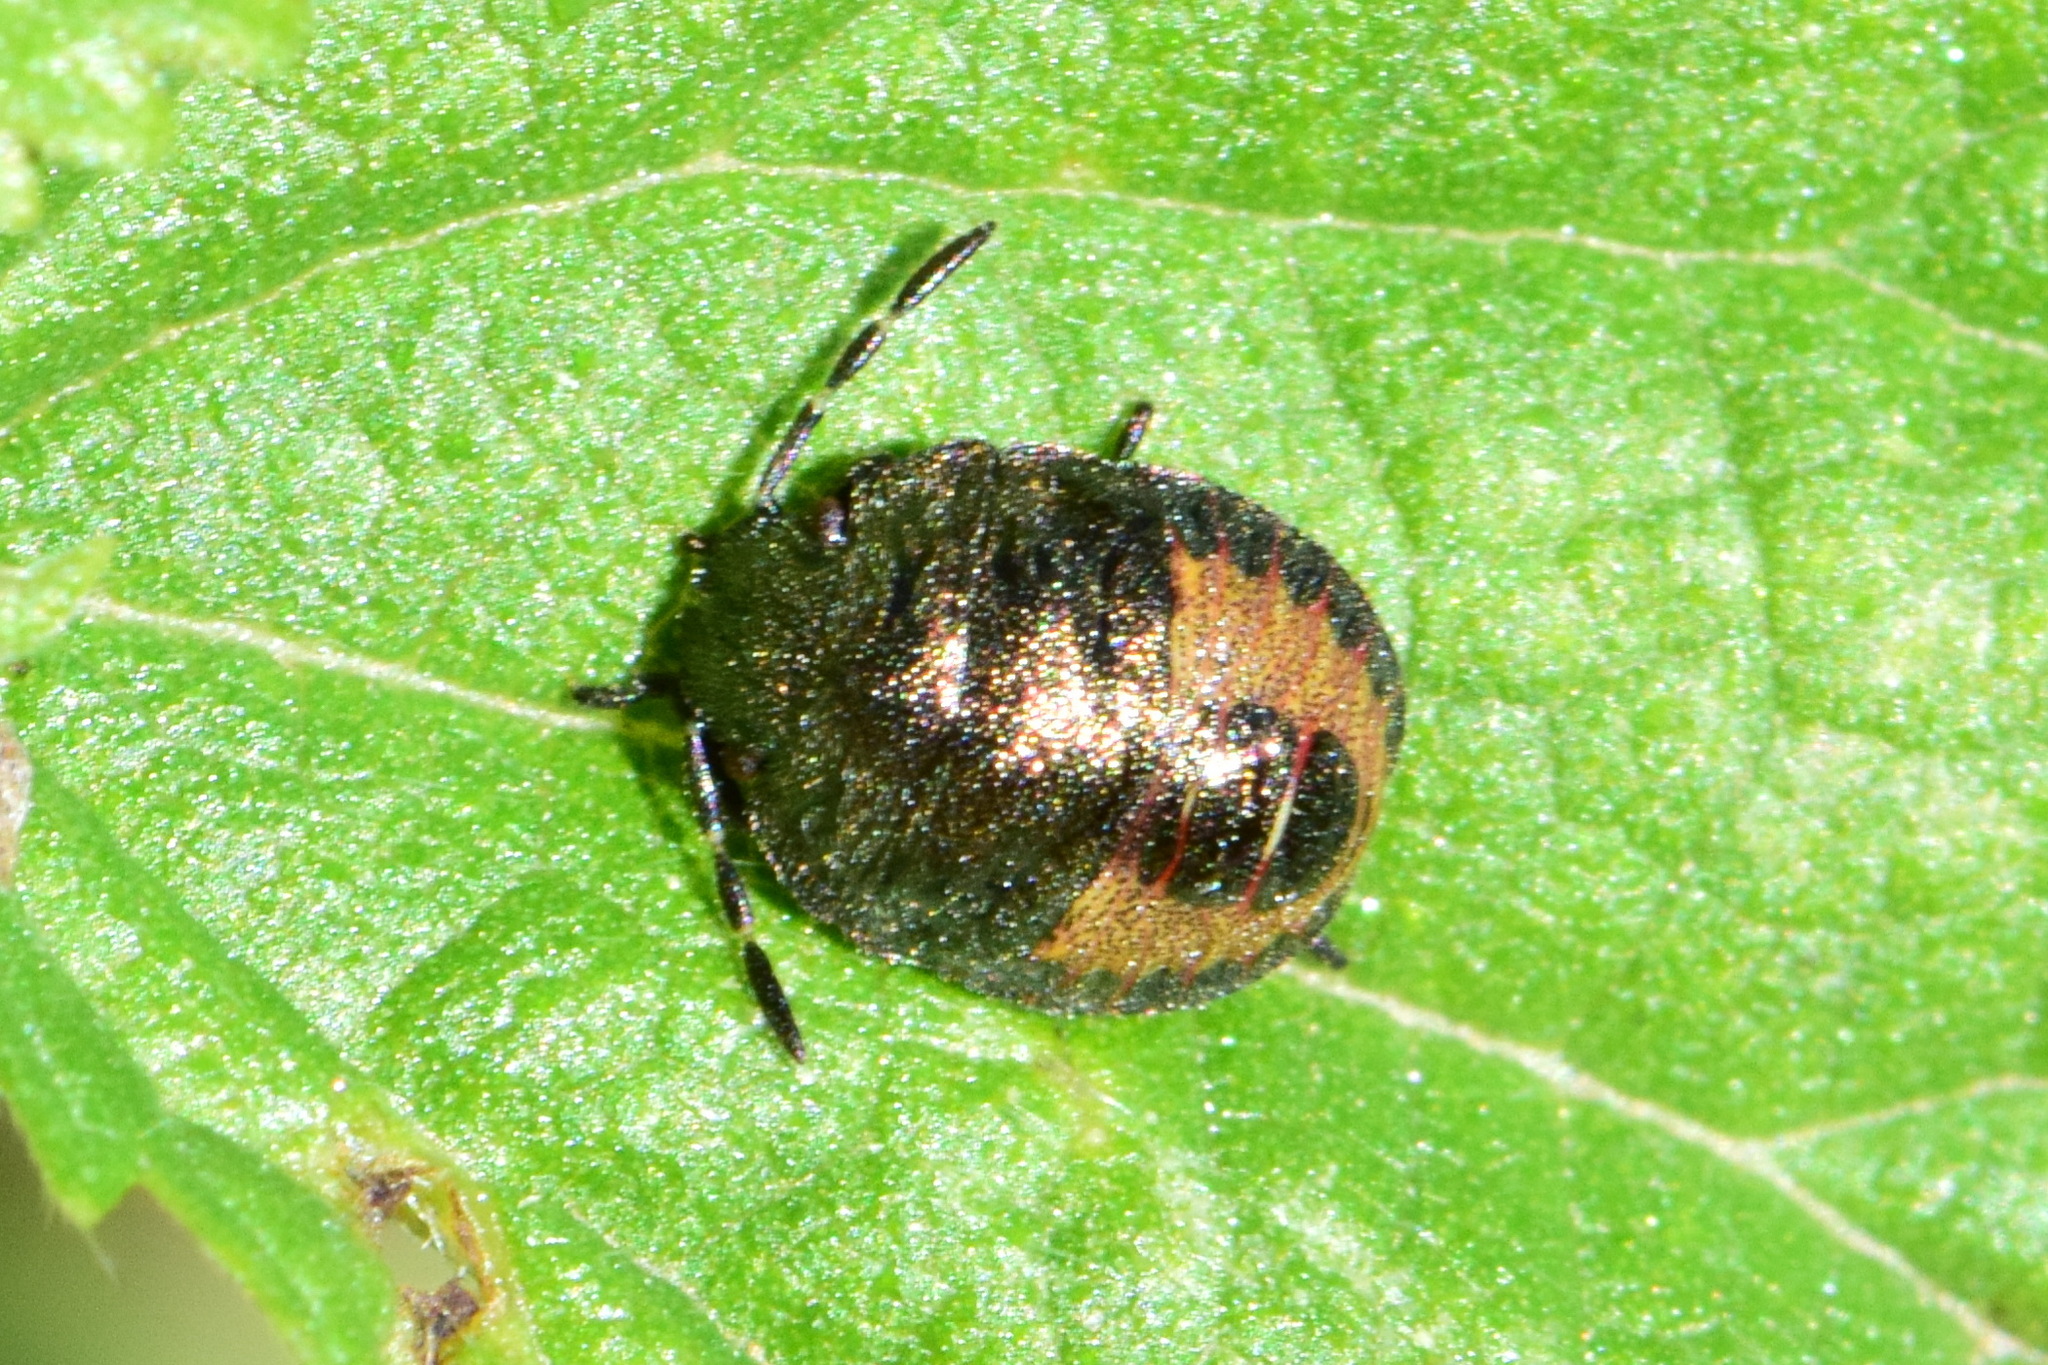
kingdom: Animalia
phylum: Arthropoda
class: Insecta
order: Hemiptera
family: Pentatomidae
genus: Holcostethus
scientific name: Holcostethus strictus
